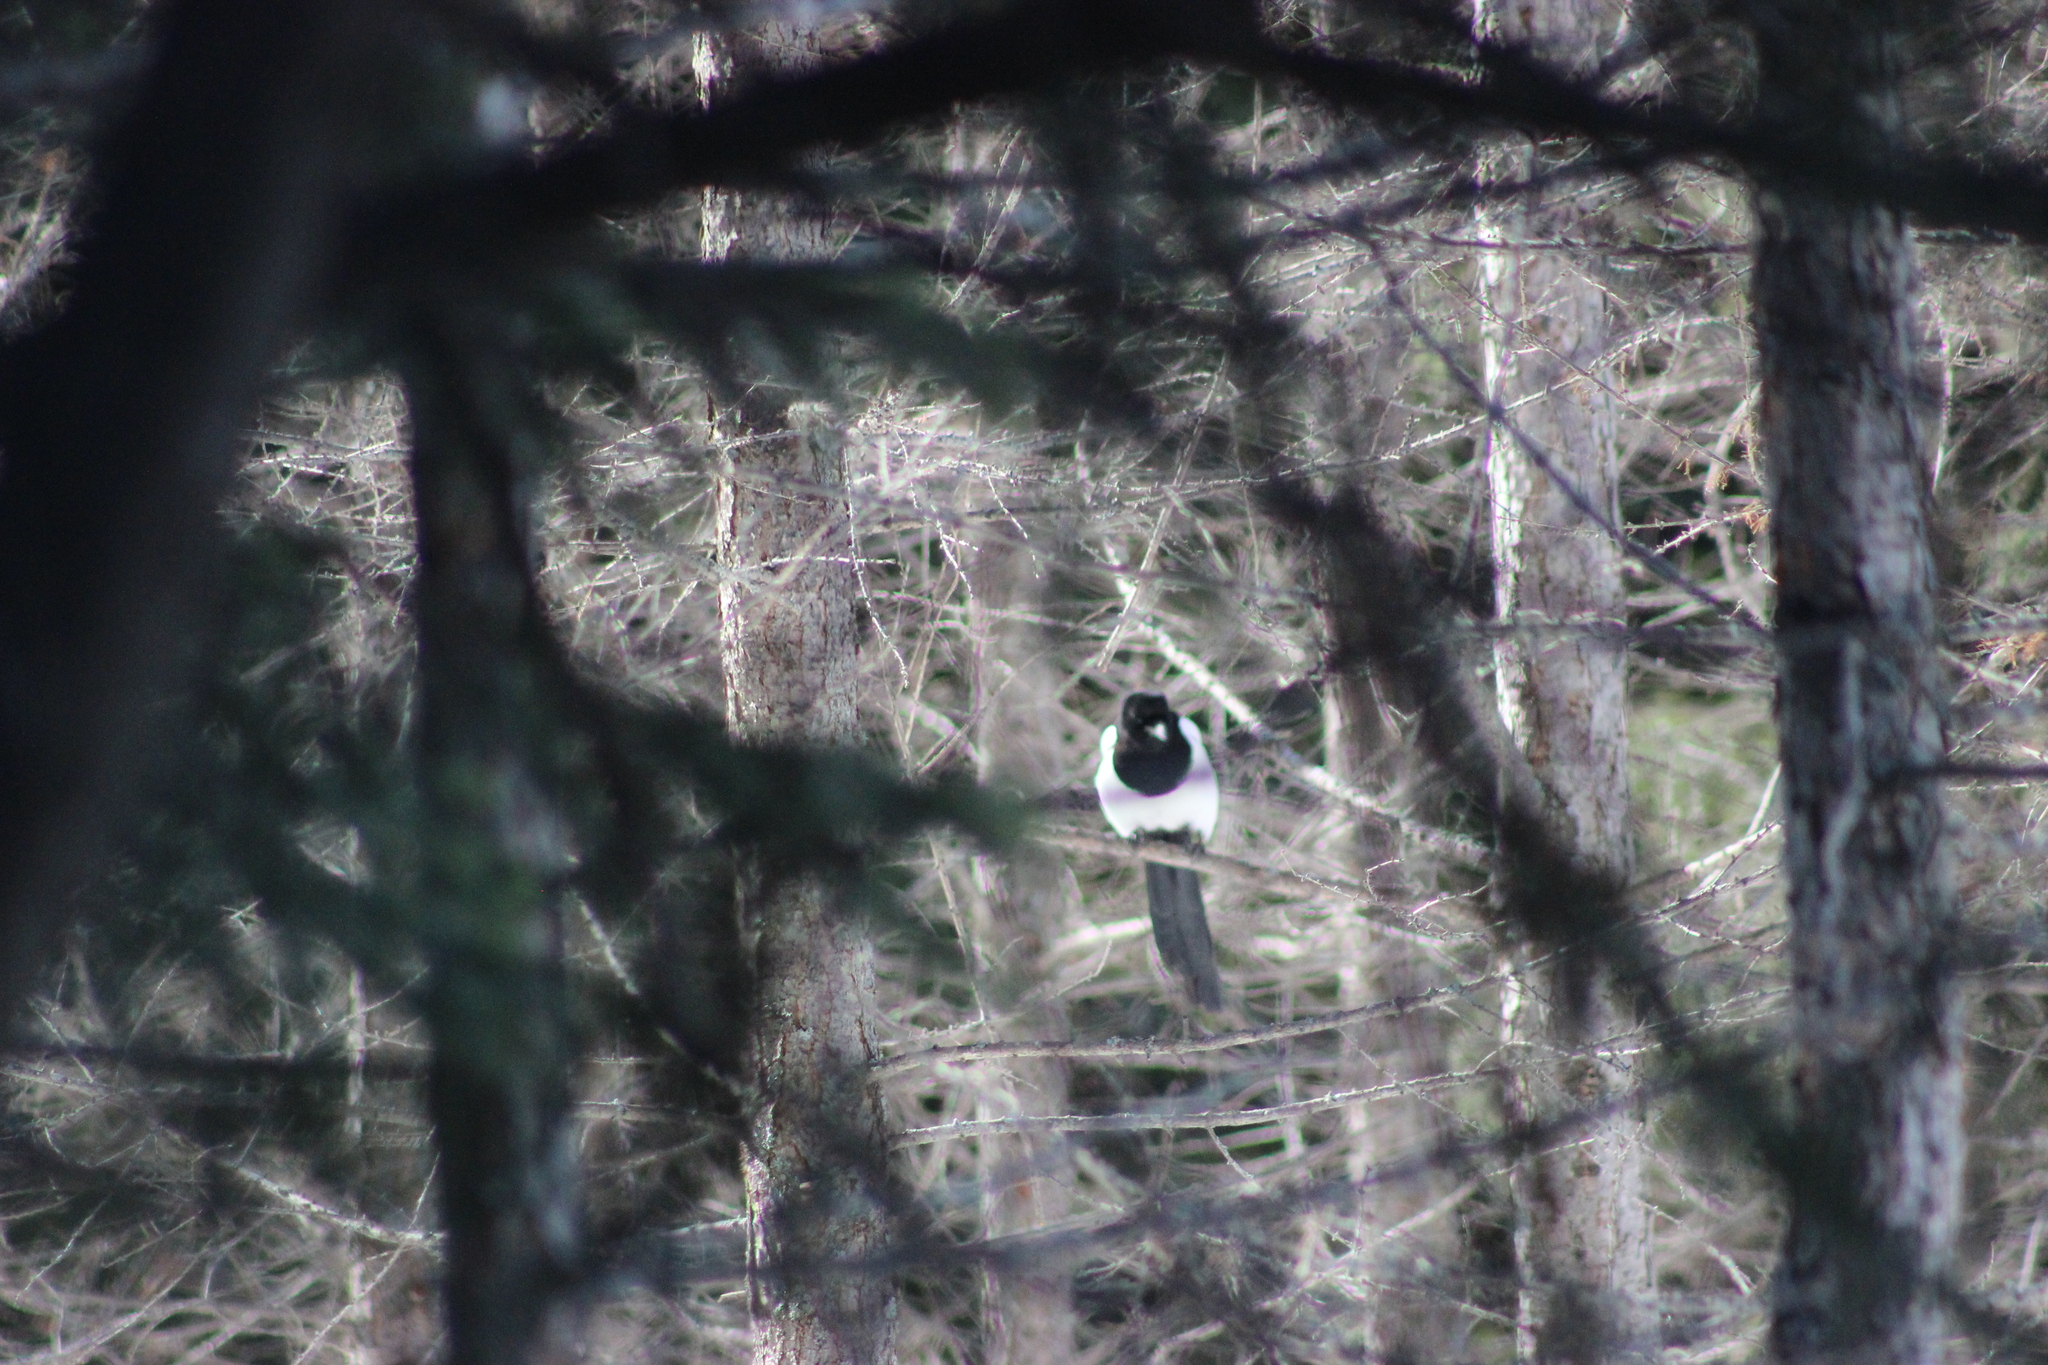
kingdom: Animalia
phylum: Chordata
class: Aves
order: Passeriformes
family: Corvidae
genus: Pica
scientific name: Pica pica
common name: Eurasian magpie
